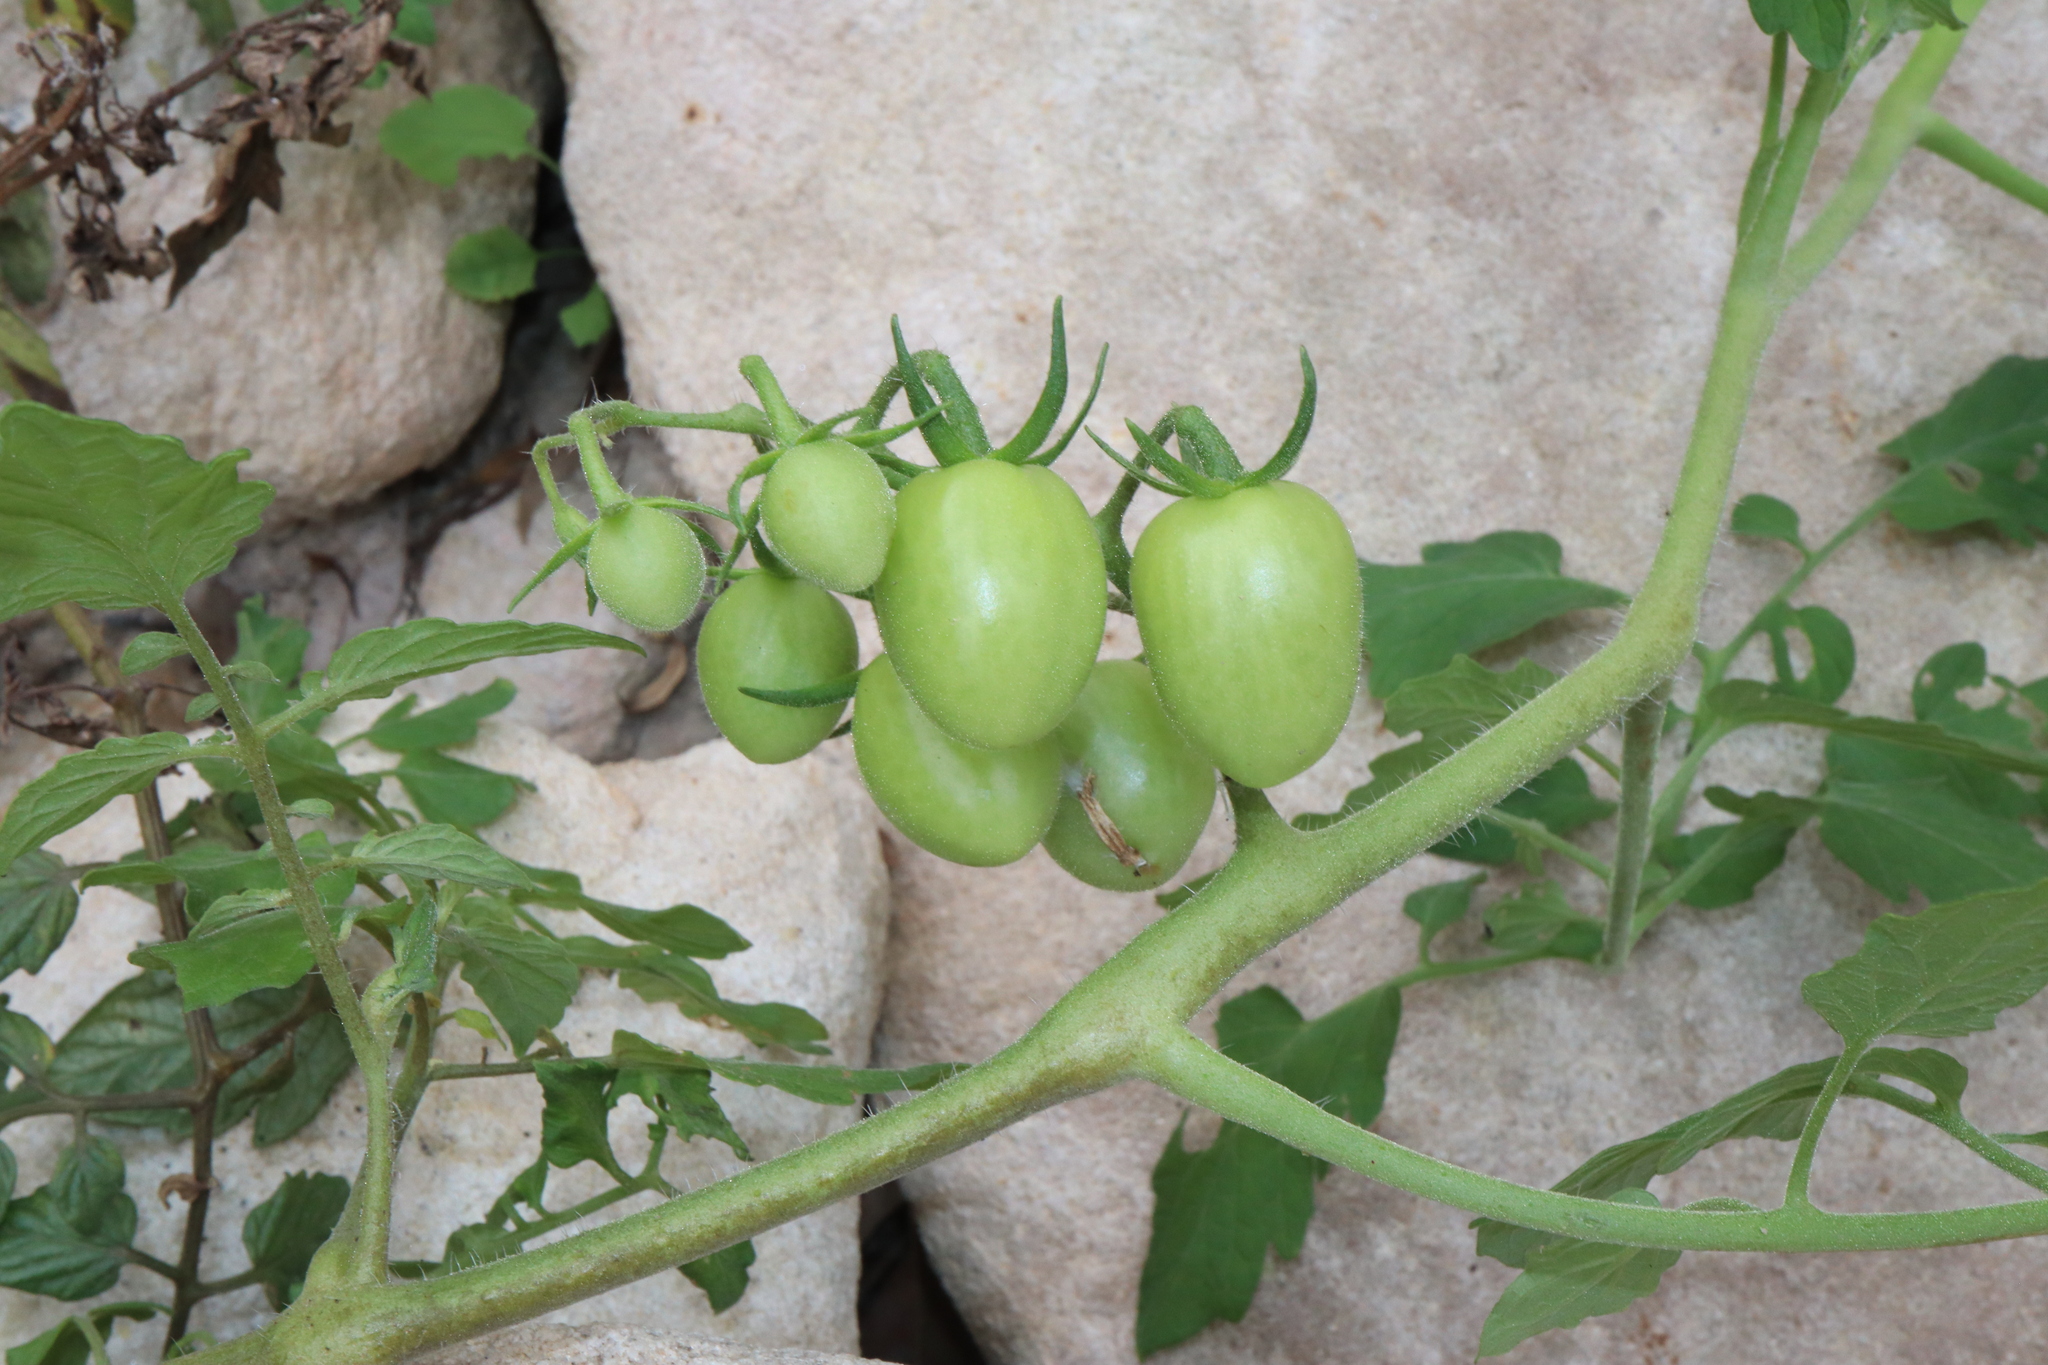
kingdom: Plantae
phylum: Tracheophyta
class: Magnoliopsida
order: Solanales
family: Solanaceae
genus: Solanum
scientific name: Solanum lycopersicum
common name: Garden tomato
